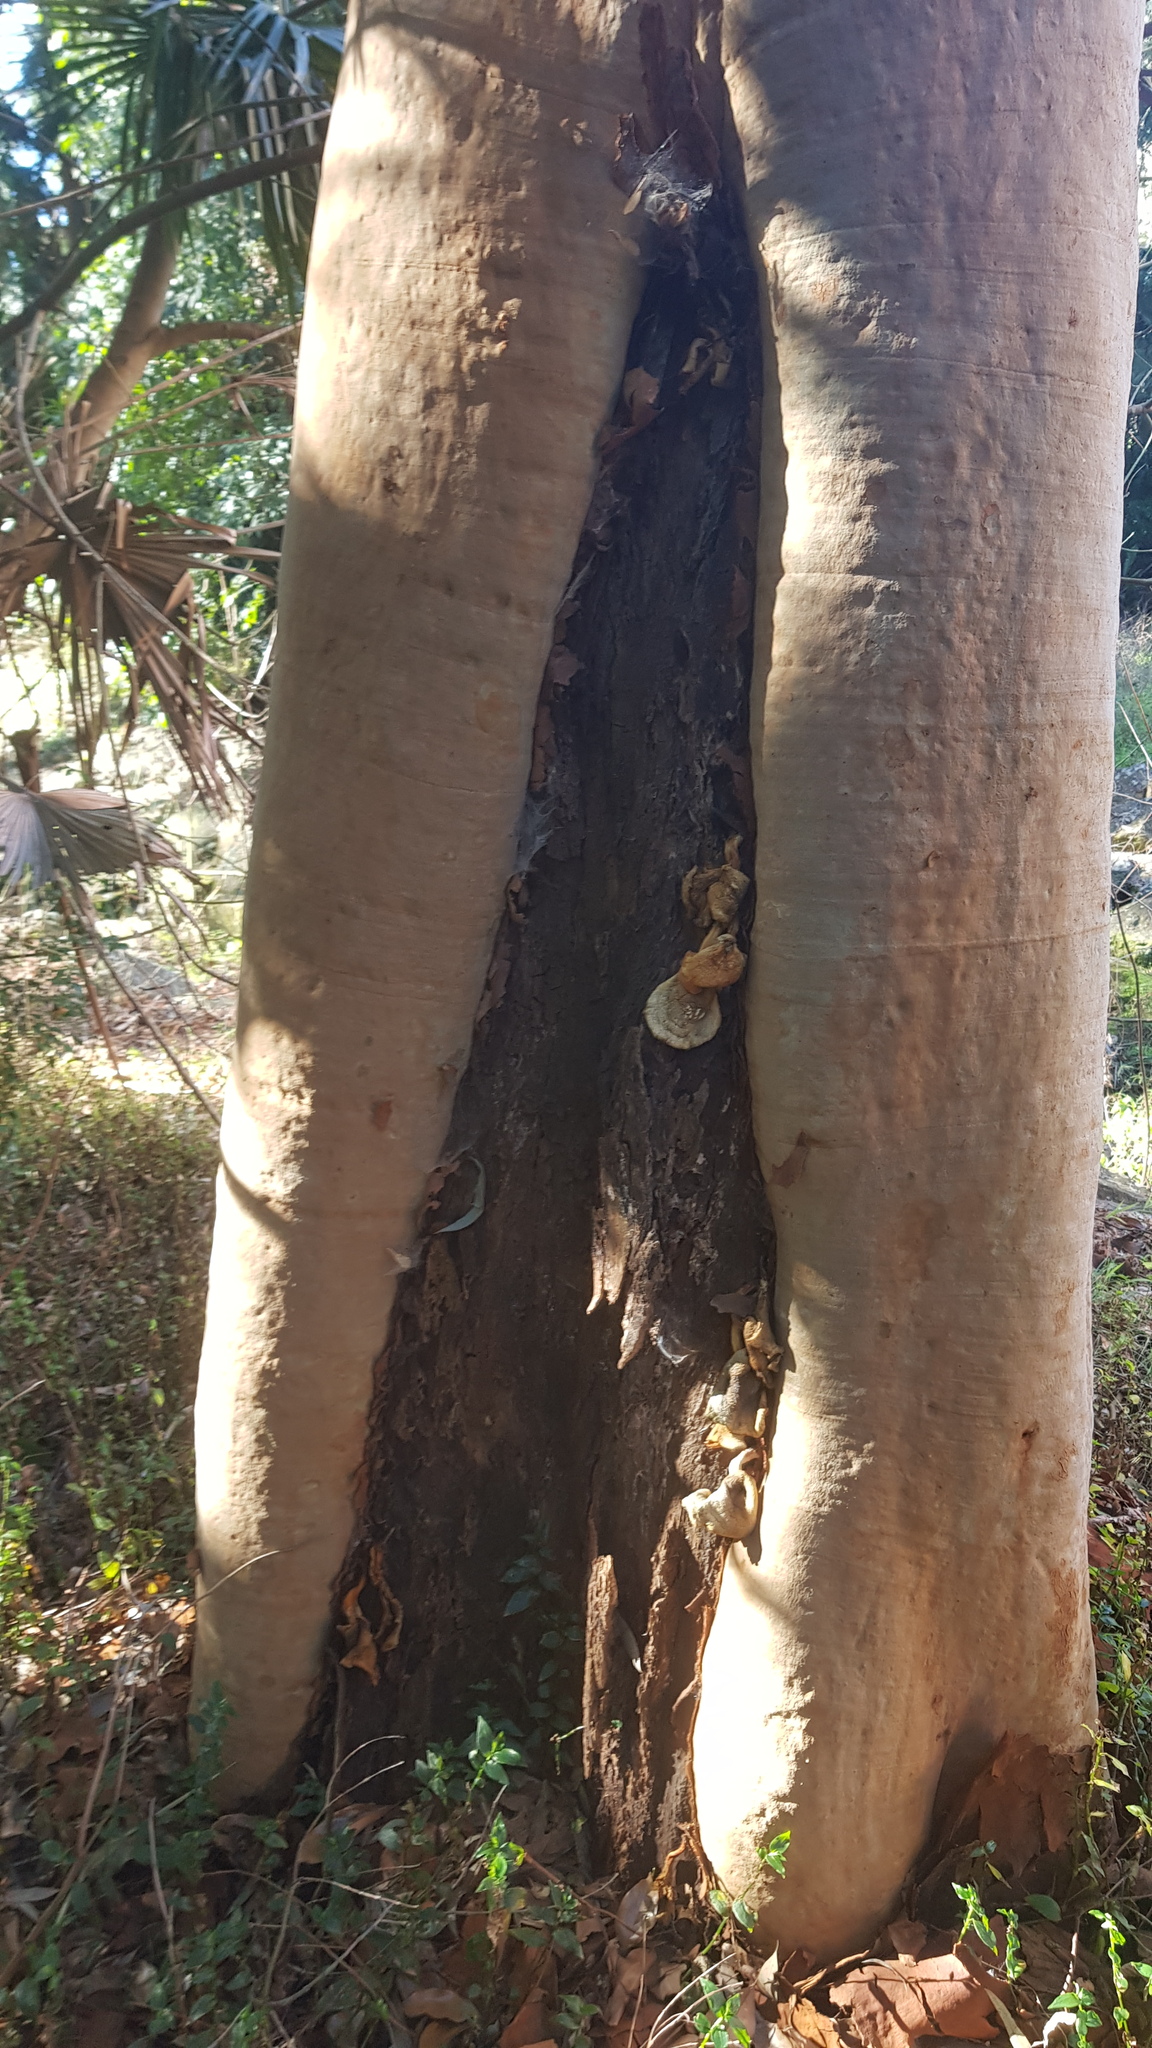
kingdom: Fungi
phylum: Basidiomycota
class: Agaricomycetes
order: Agaricales
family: Omphalotaceae
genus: Omphalotus
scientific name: Omphalotus nidiformis
